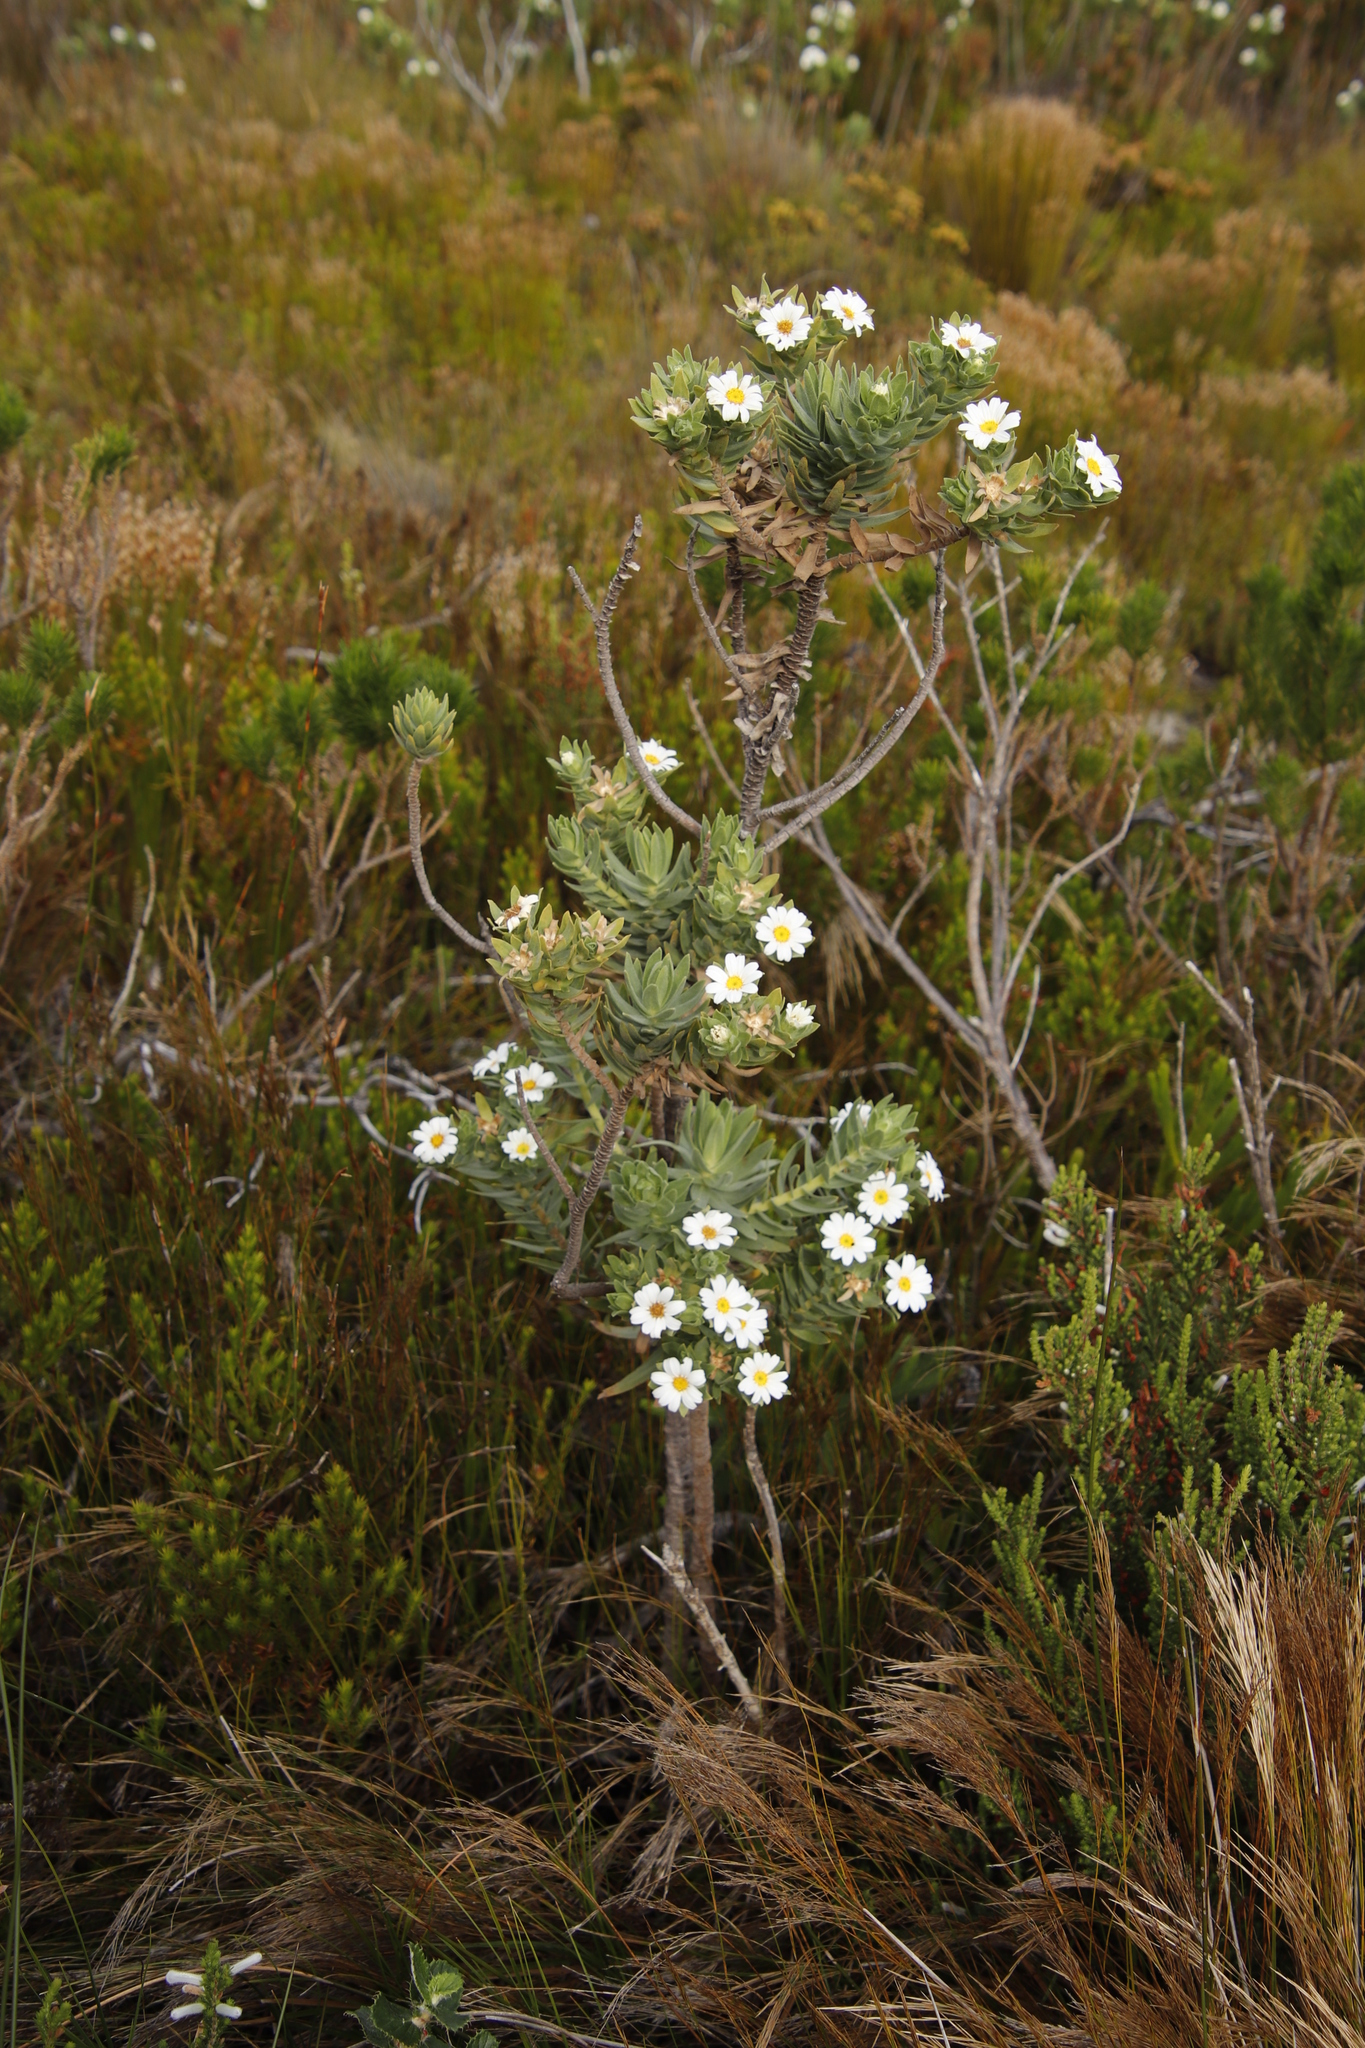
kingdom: Plantae
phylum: Tracheophyta
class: Magnoliopsida
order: Asterales
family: Asteraceae
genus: Osmitopsis
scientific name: Osmitopsis asteriscoides
